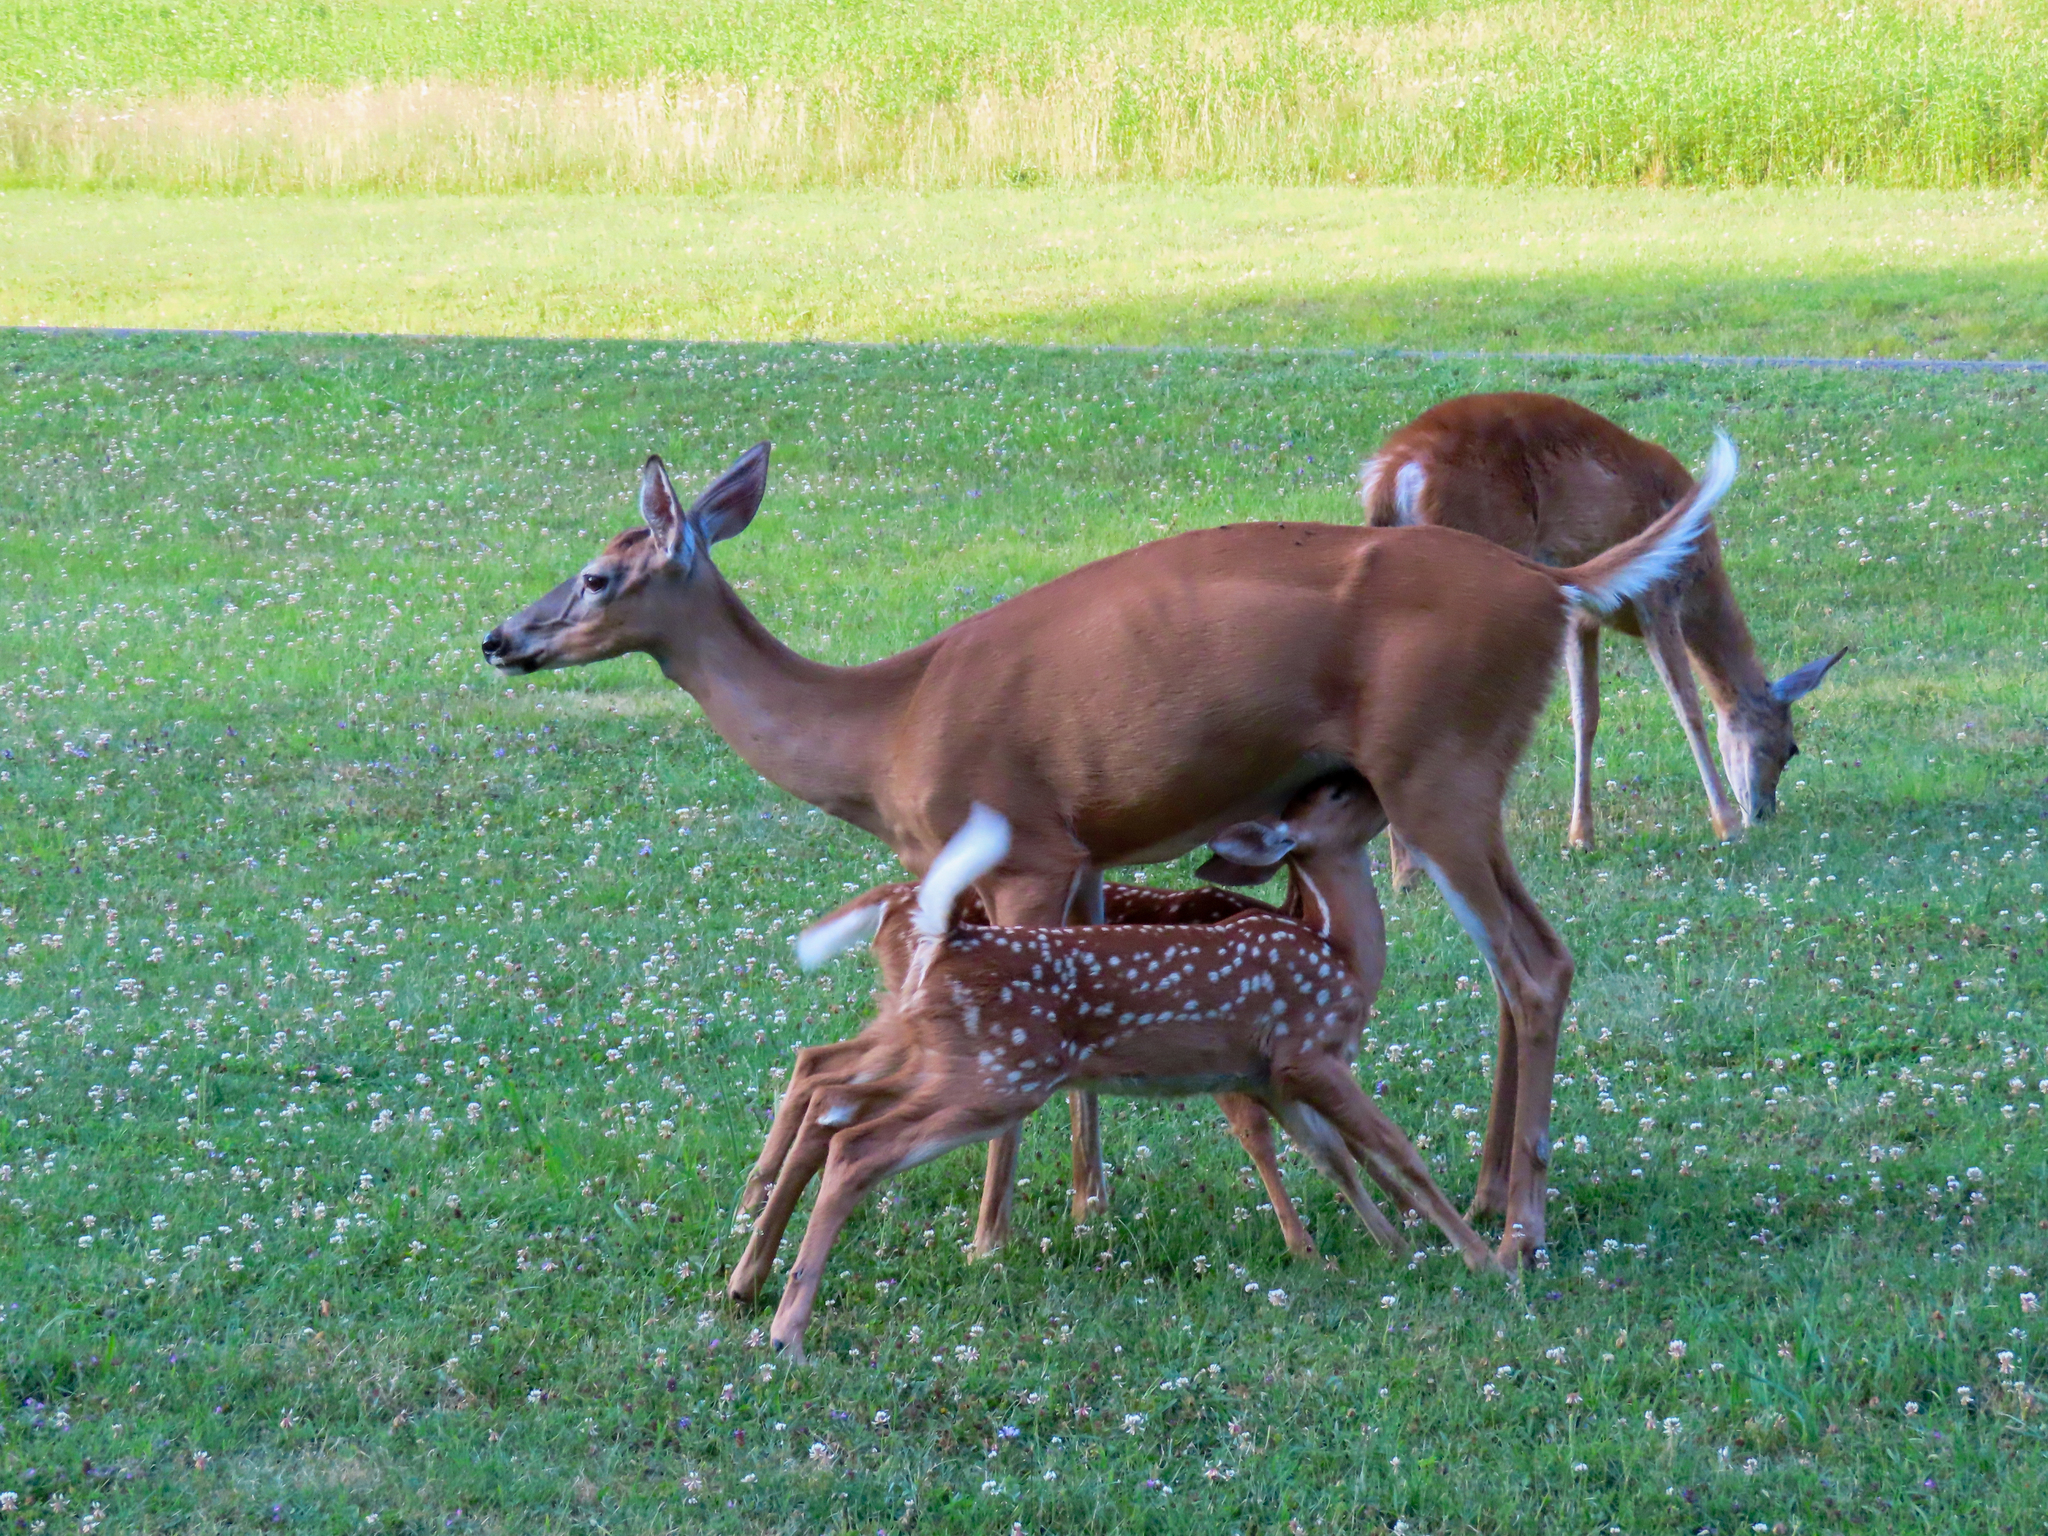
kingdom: Animalia
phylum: Chordata
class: Mammalia
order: Artiodactyla
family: Cervidae
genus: Odocoileus
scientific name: Odocoileus virginianus
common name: White-tailed deer
